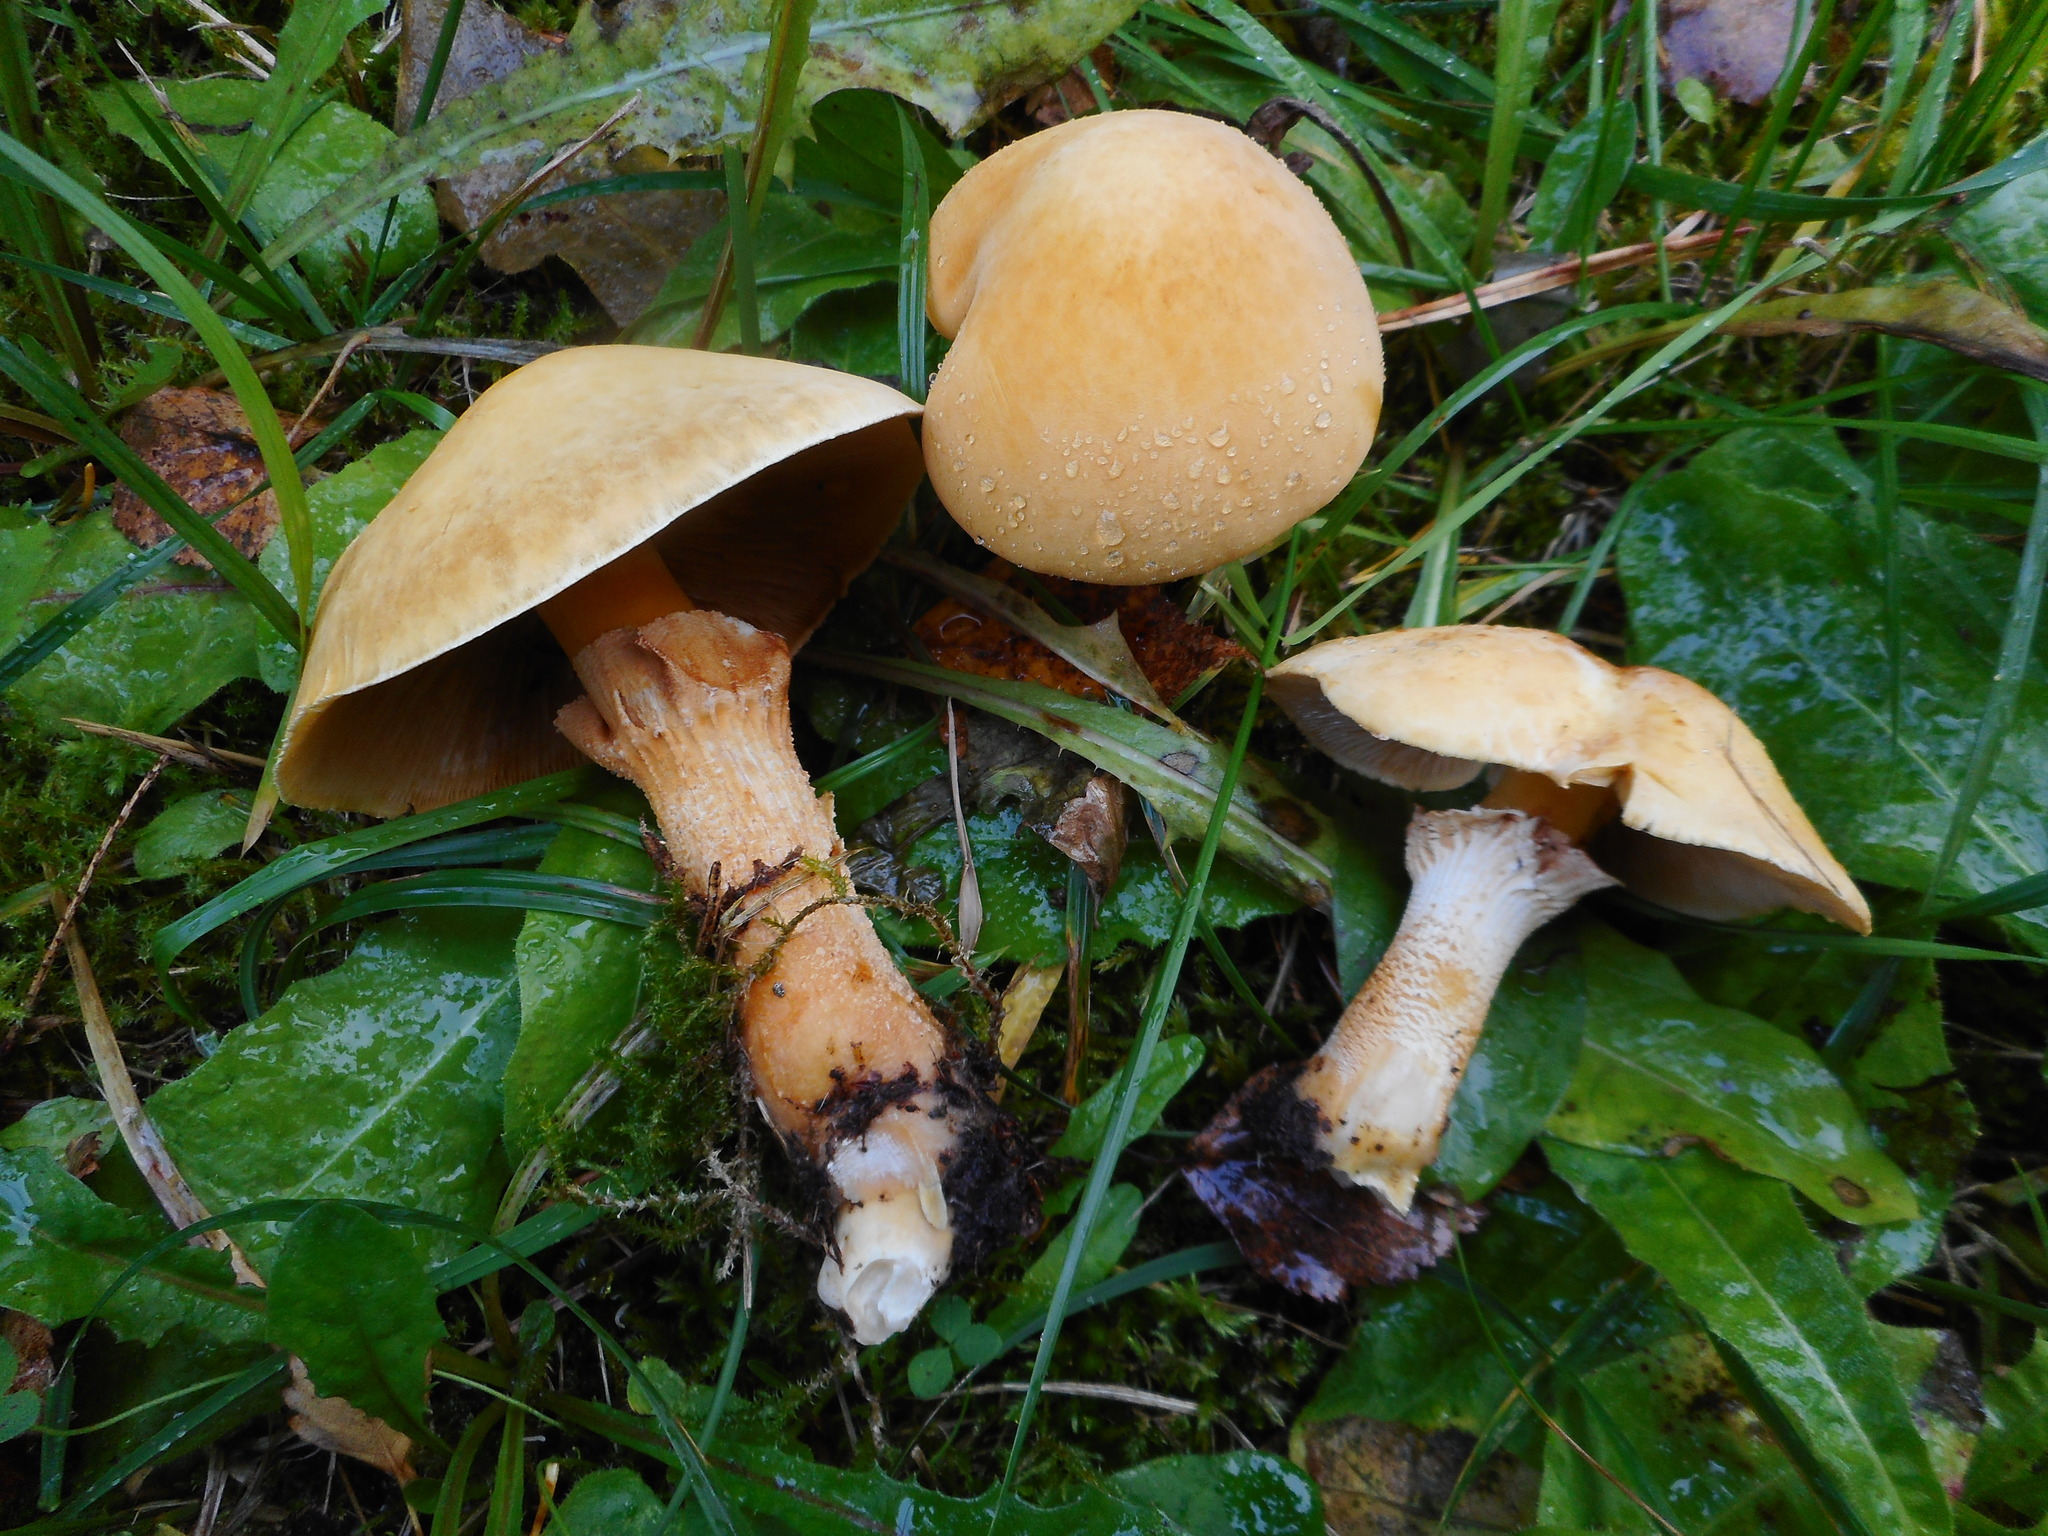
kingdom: Fungi
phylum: Basidiomycota
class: Agaricomycetes
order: Agaricales
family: Tricholomataceae
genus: Phaeolepiota
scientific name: Phaeolepiota aurea
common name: Golden bootleg
